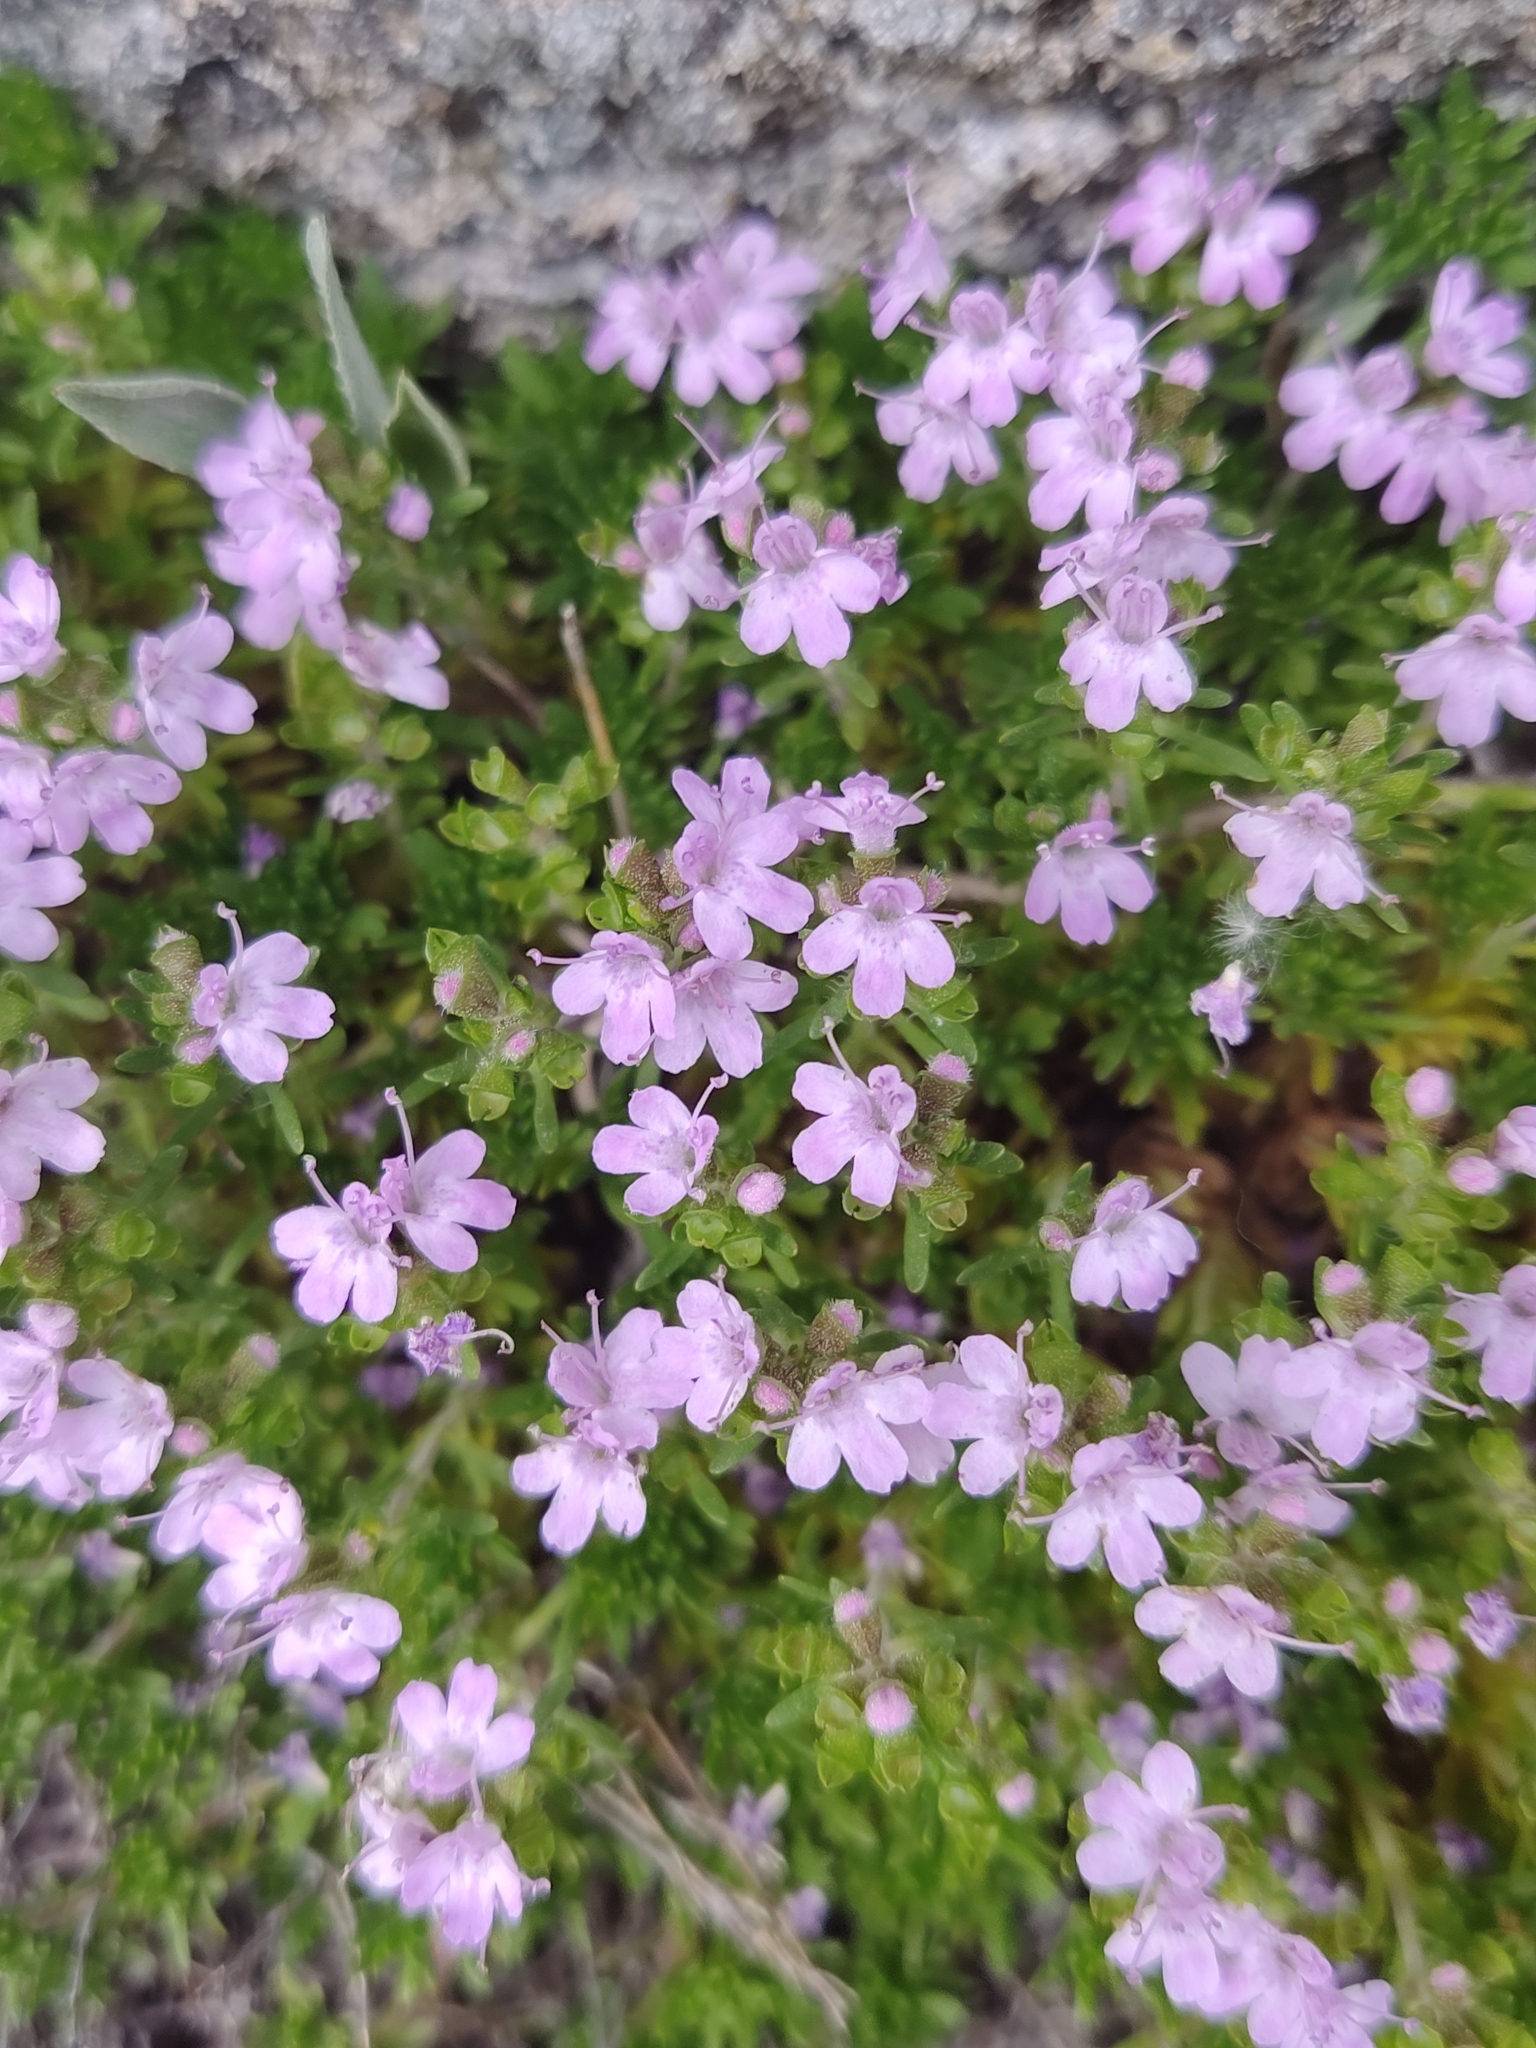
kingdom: Plantae
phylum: Tracheophyta
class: Magnoliopsida
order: Lamiales
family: Lamiaceae
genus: Thymus
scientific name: Thymus caespititius
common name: Azores thyme
